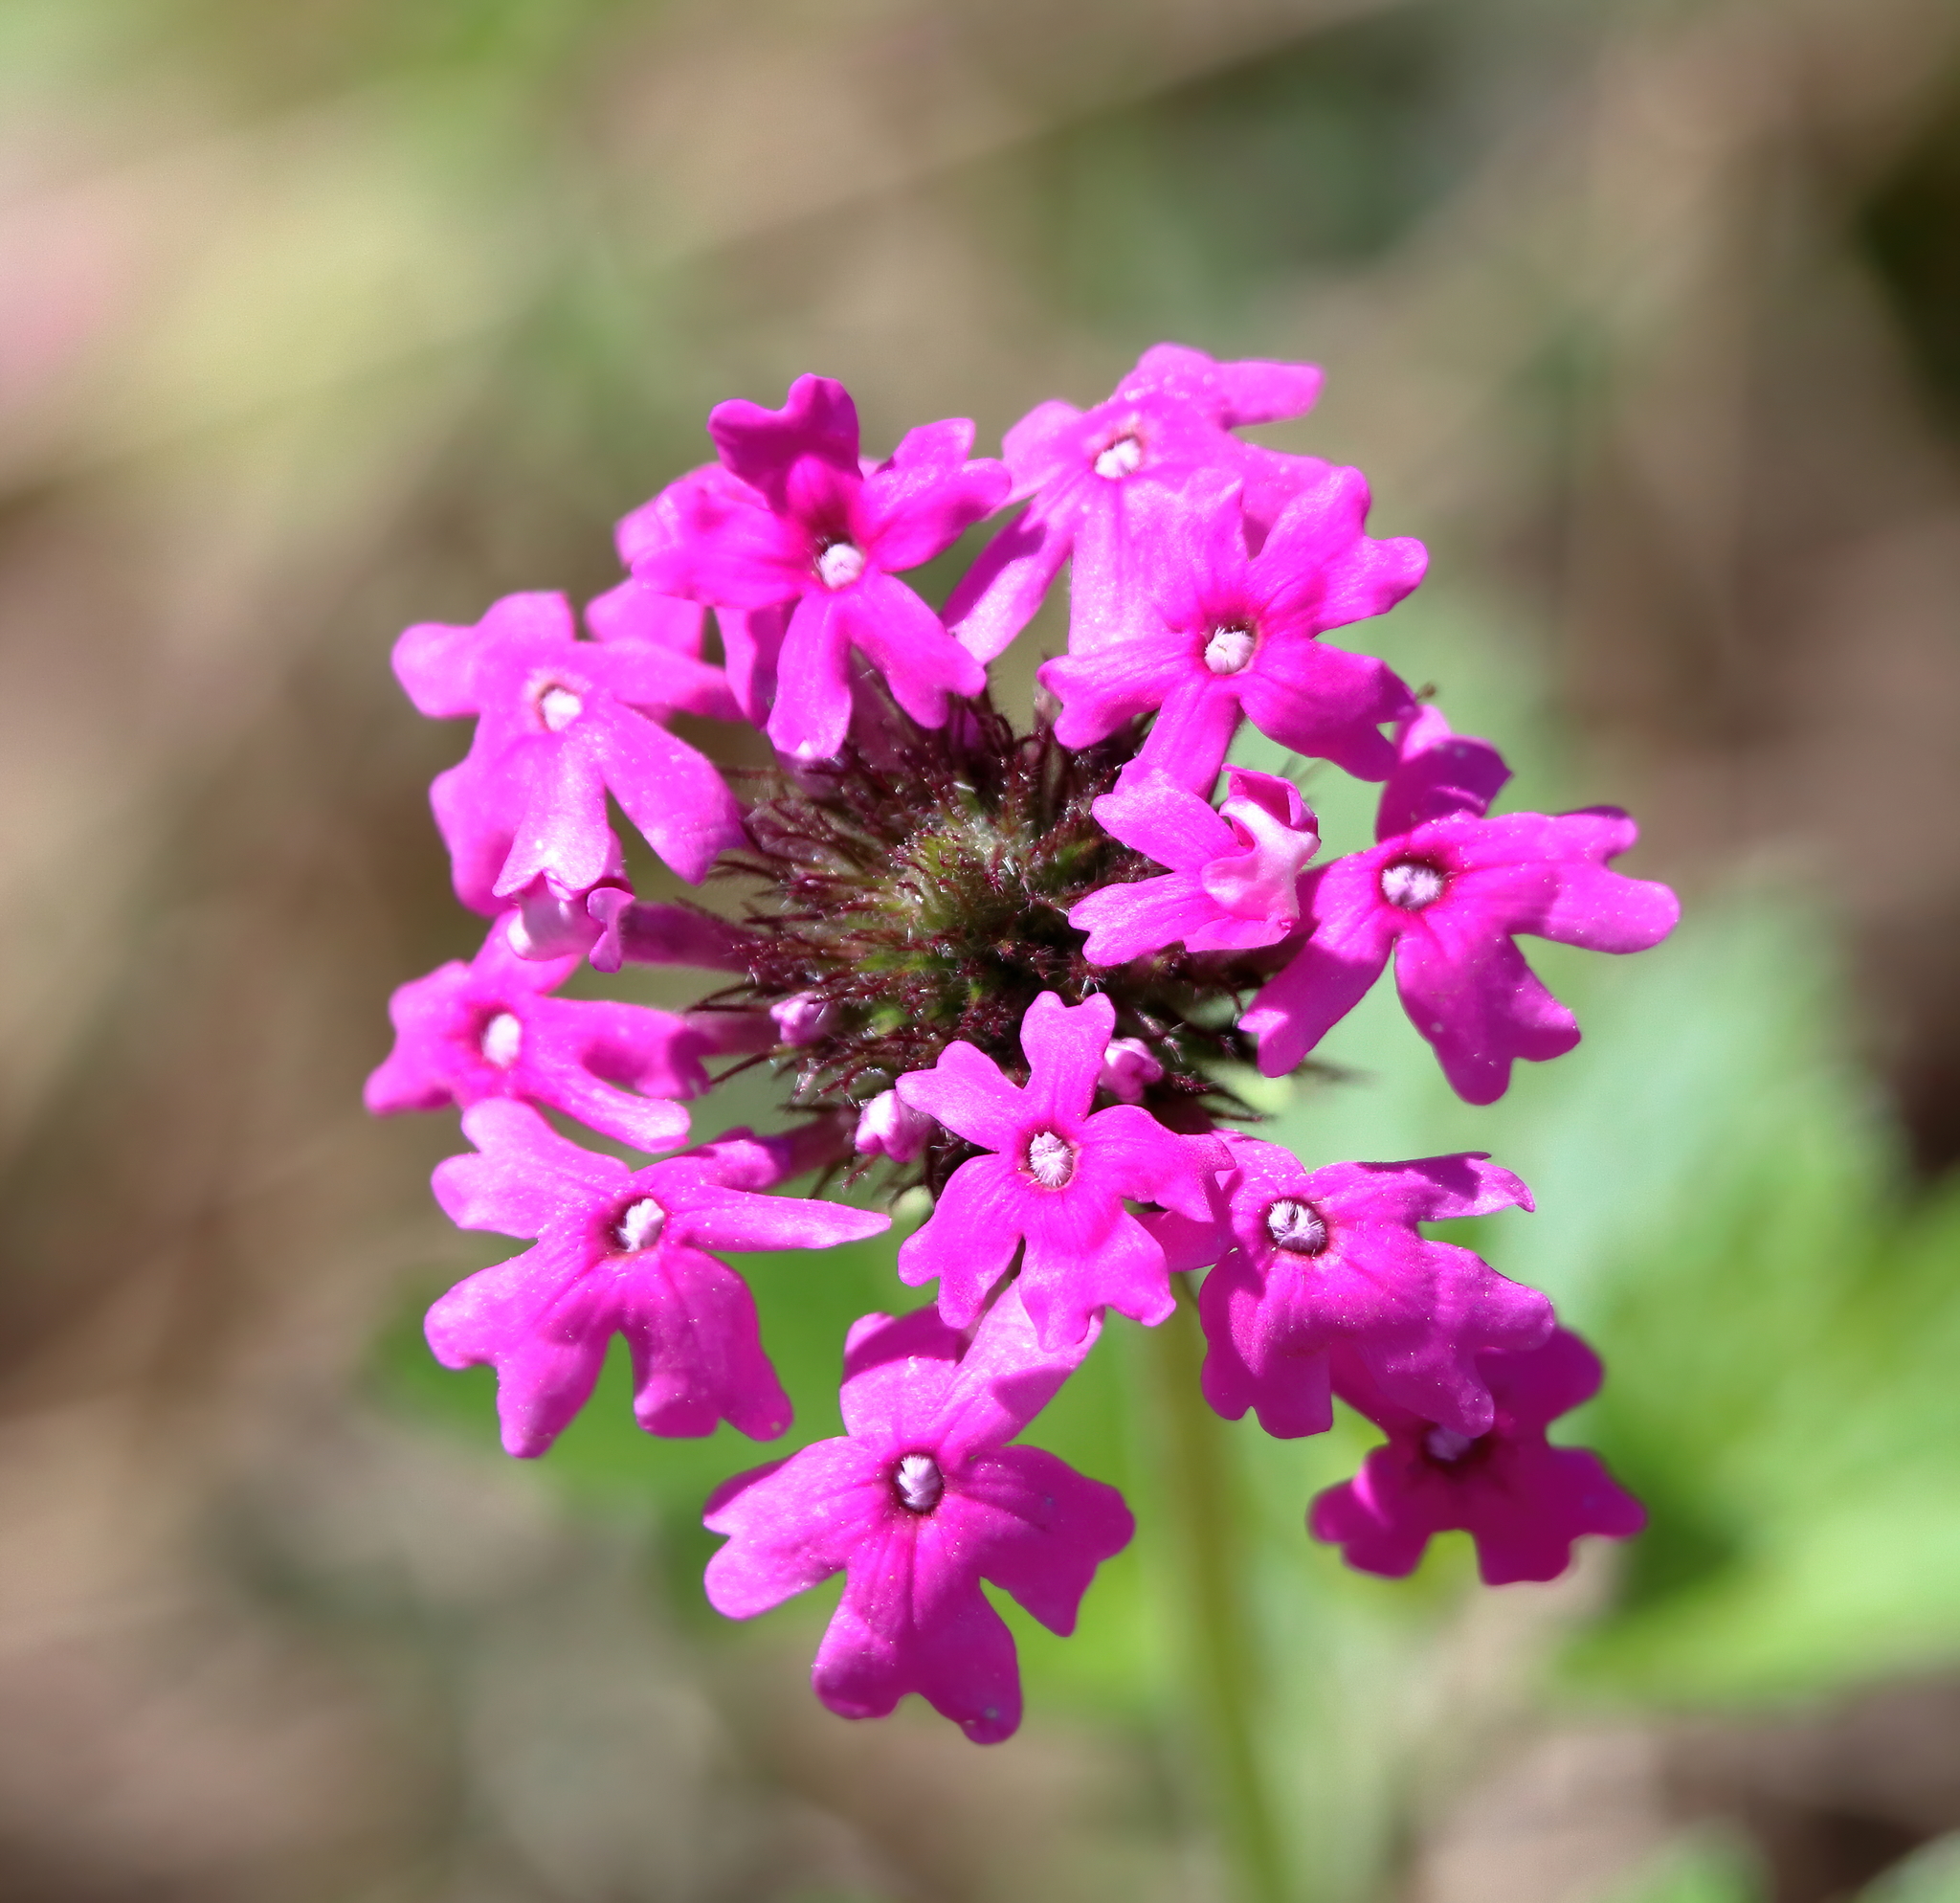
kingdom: Plantae
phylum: Tracheophyta
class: Magnoliopsida
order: Lamiales
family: Verbenaceae
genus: Verbena
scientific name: Verbena canadensis
